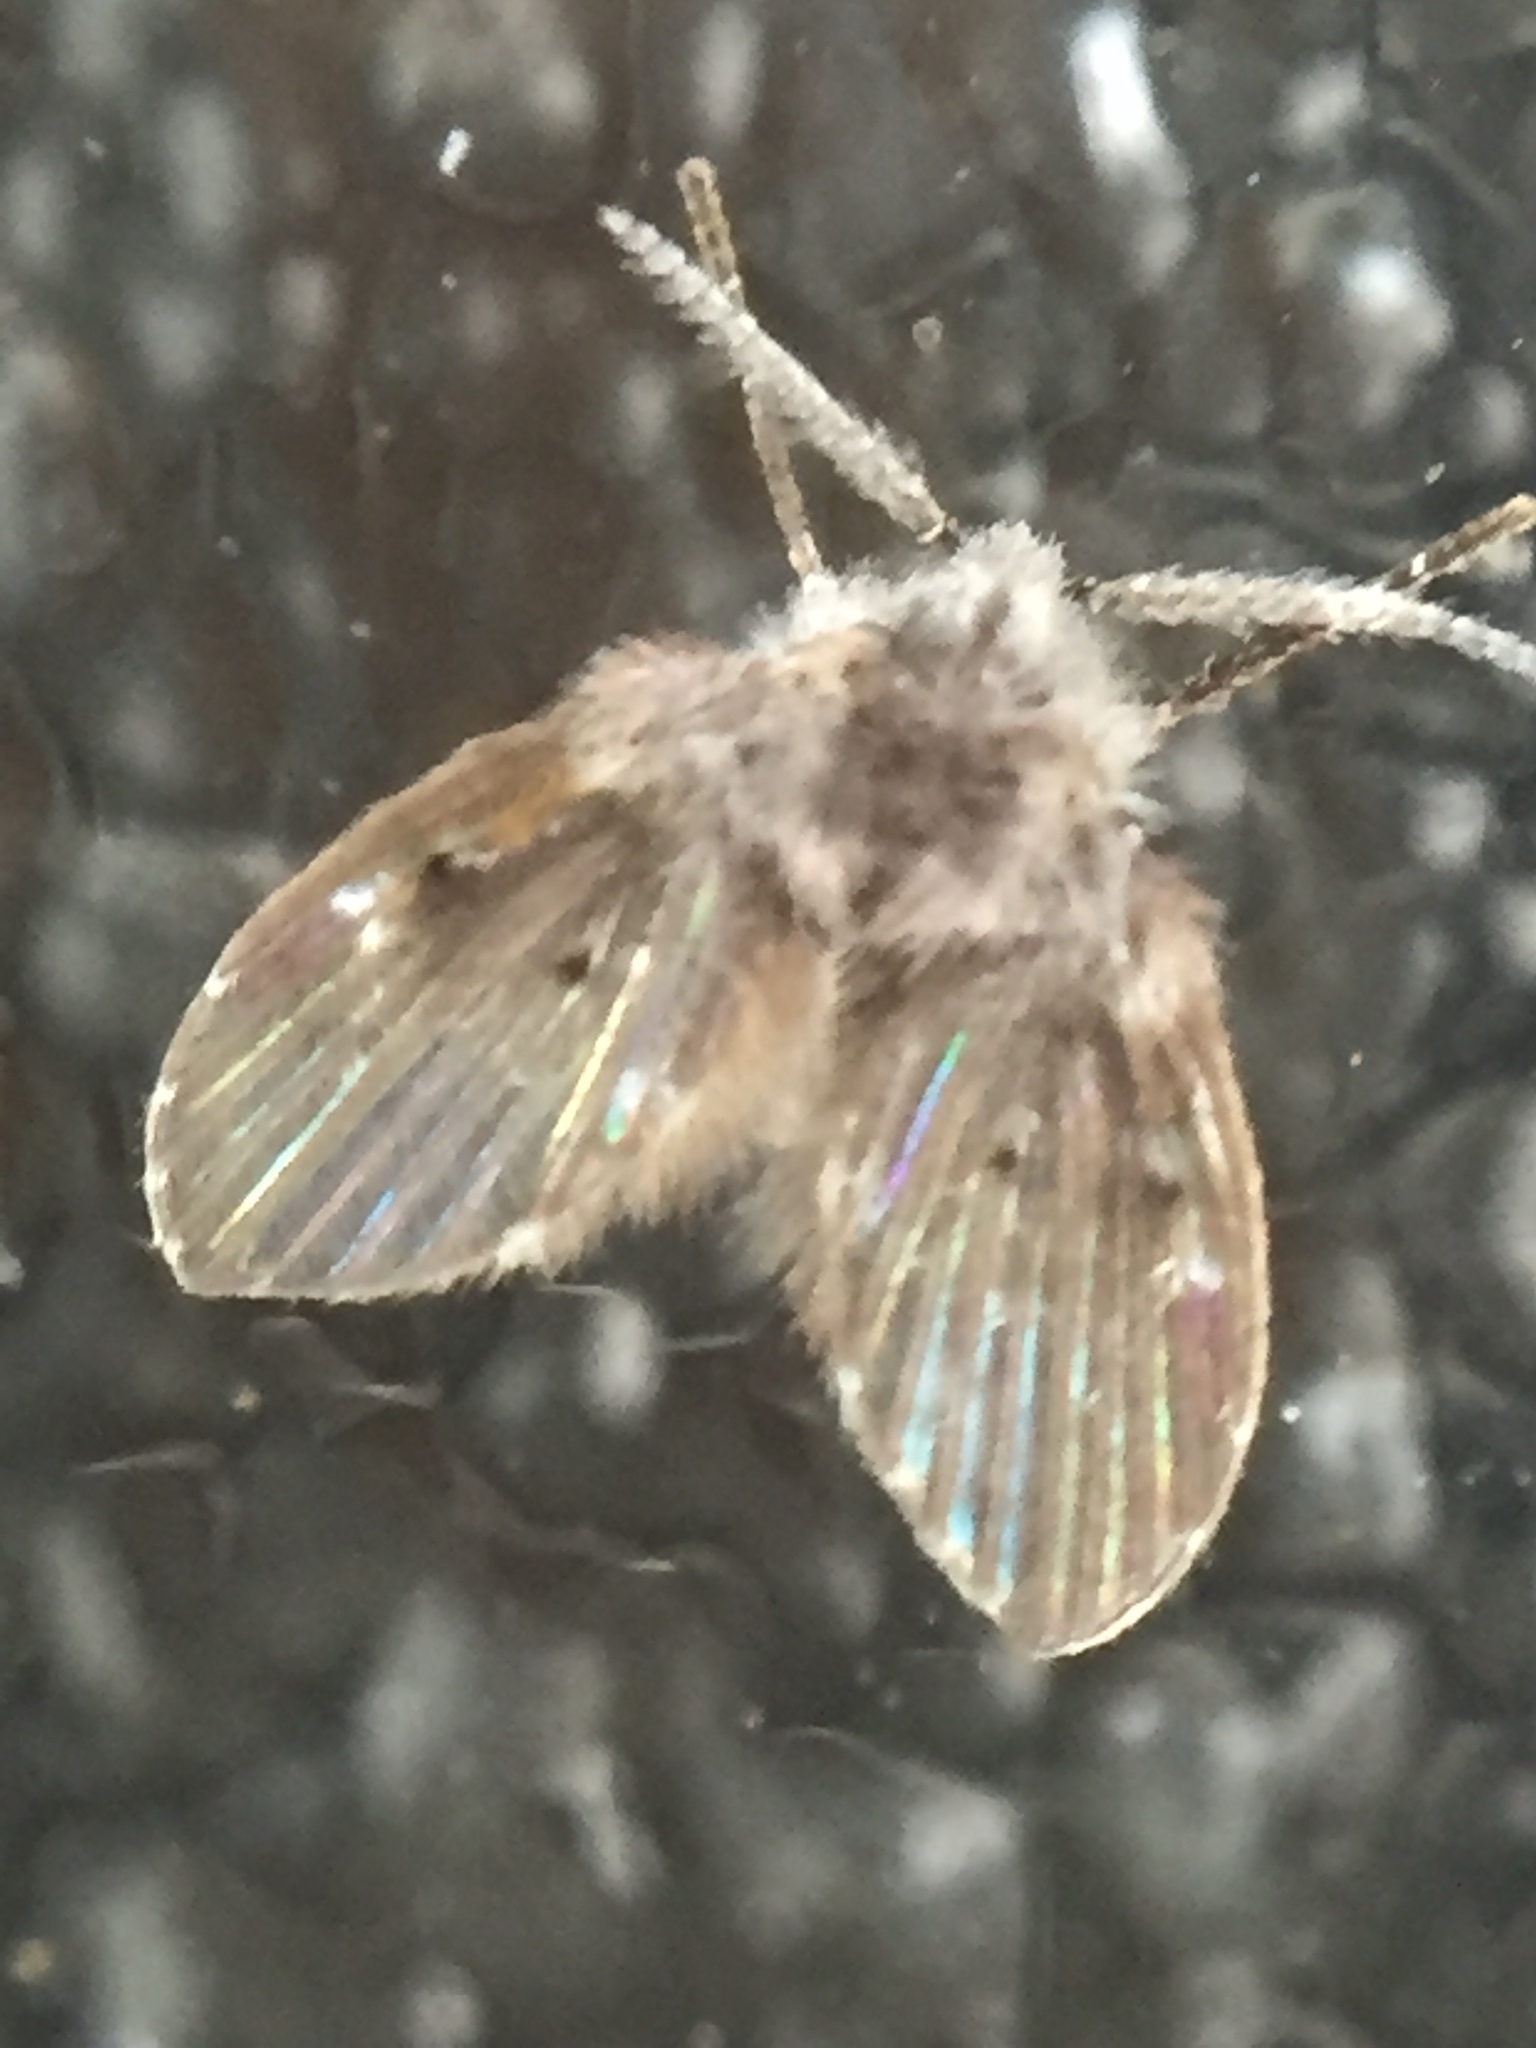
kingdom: Animalia
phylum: Arthropoda
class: Insecta
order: Diptera
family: Psychodidae
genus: Clogmia
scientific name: Clogmia albipunctatus
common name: White-spotted moth fly
